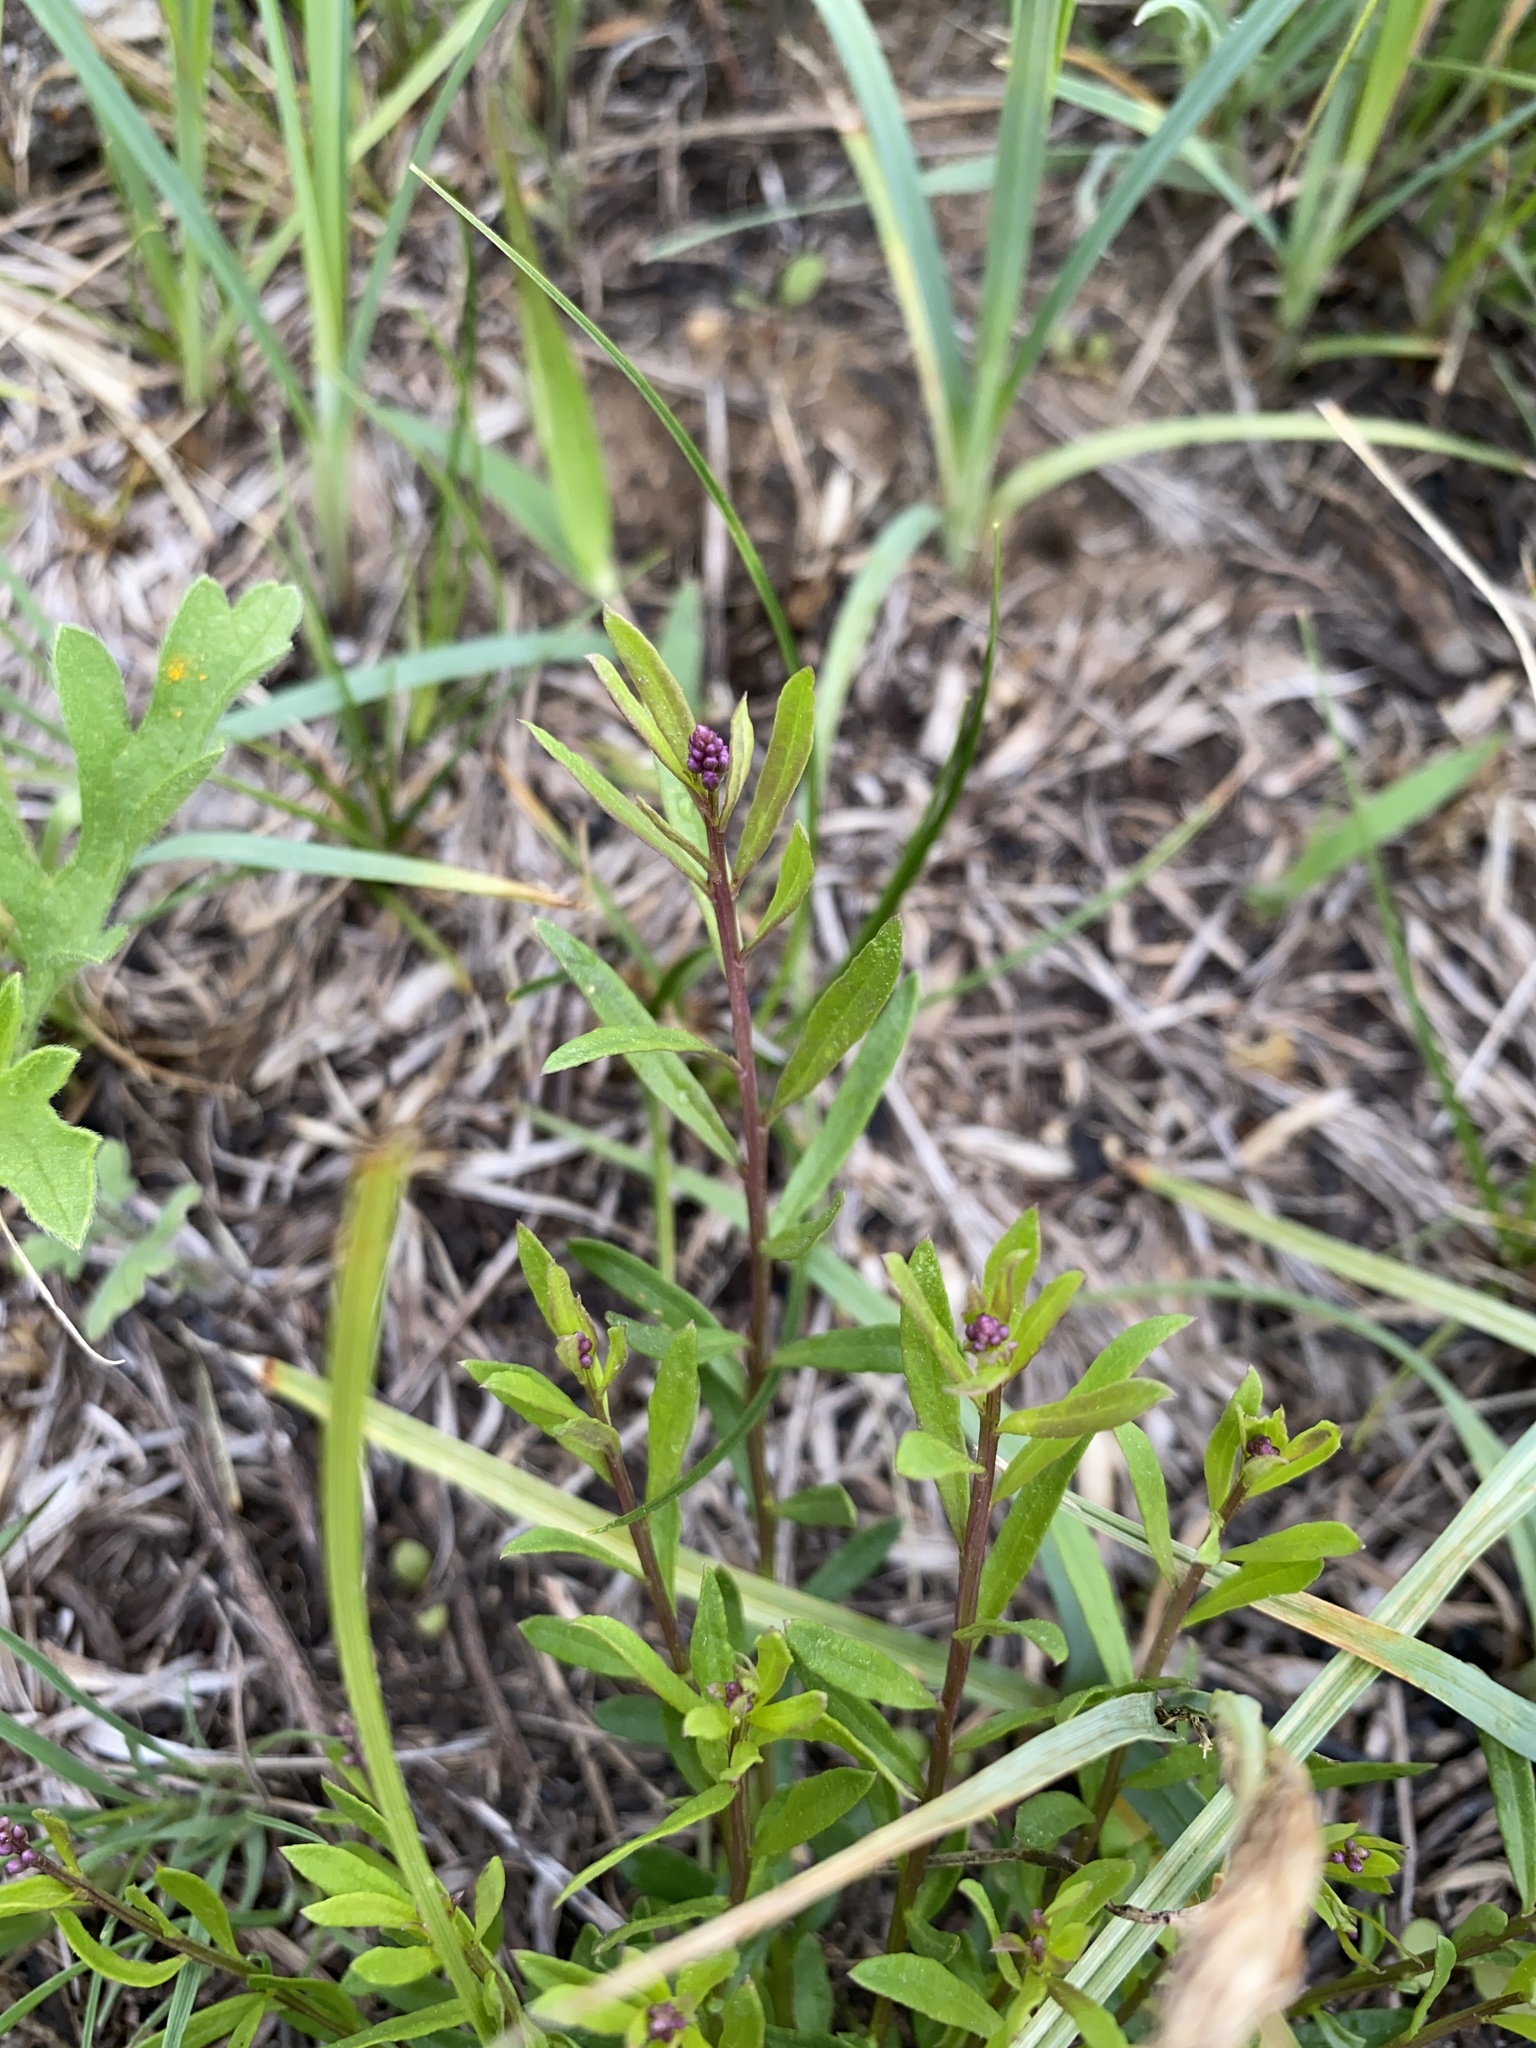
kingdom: Plantae
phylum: Tracheophyta
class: Magnoliopsida
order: Fabales
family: Polygalaceae
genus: Polygala
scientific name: Polygala polygama
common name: Bitter milkwort
